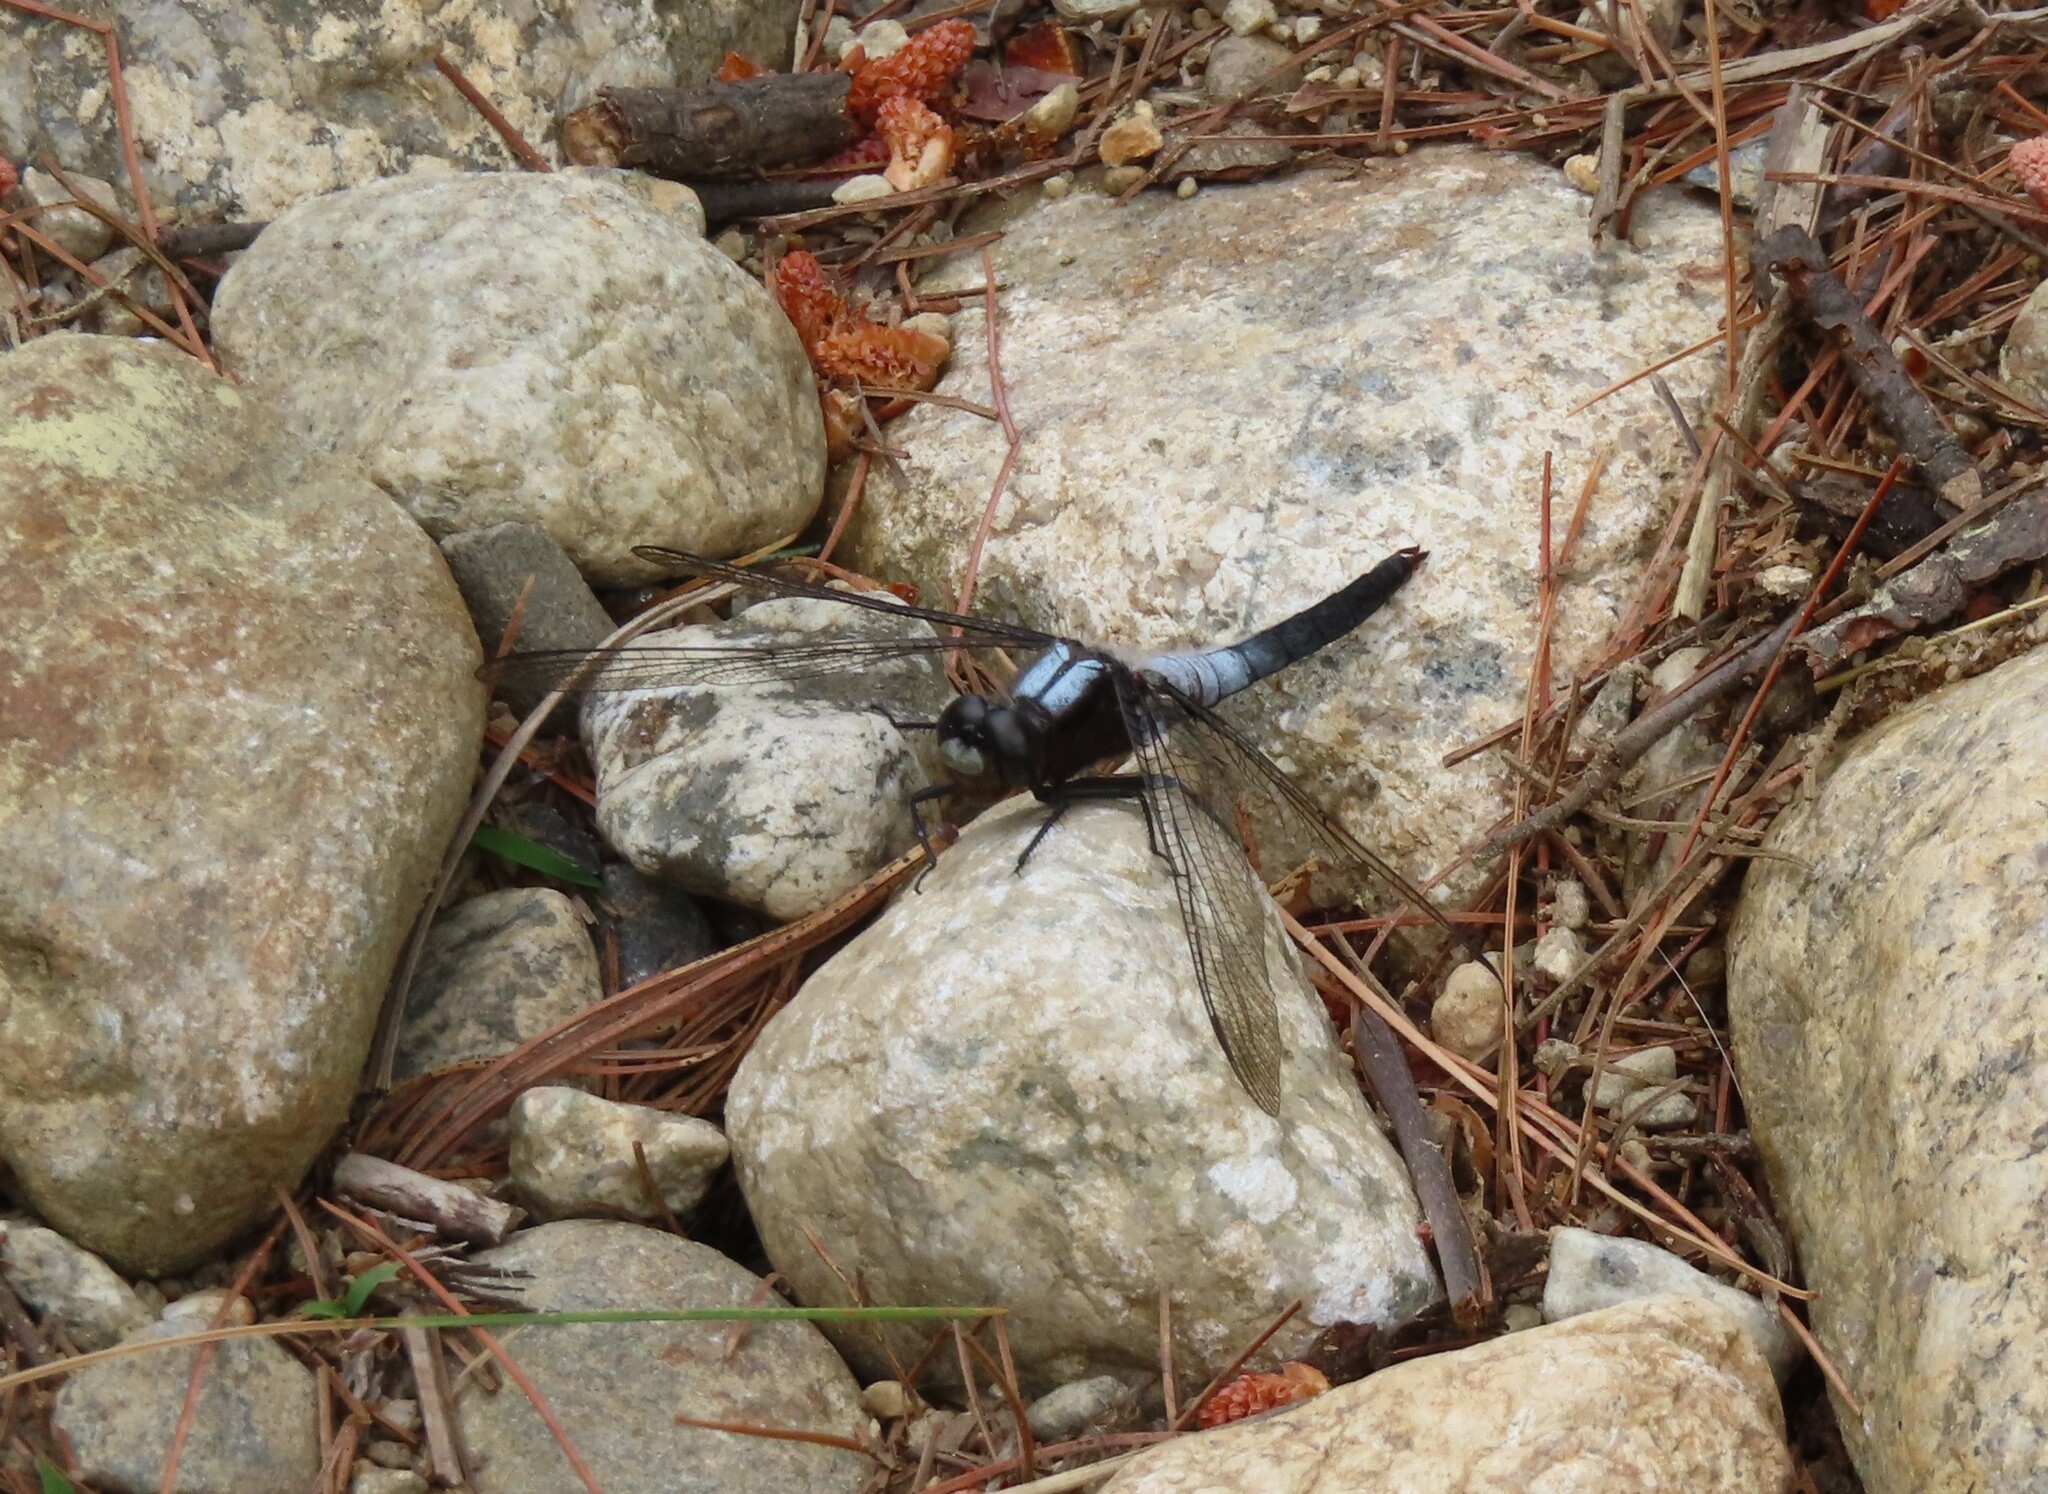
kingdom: Animalia
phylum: Arthropoda
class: Insecta
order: Odonata
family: Libellulidae
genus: Ladona
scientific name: Ladona julia
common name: Chalk-fronted corporal
